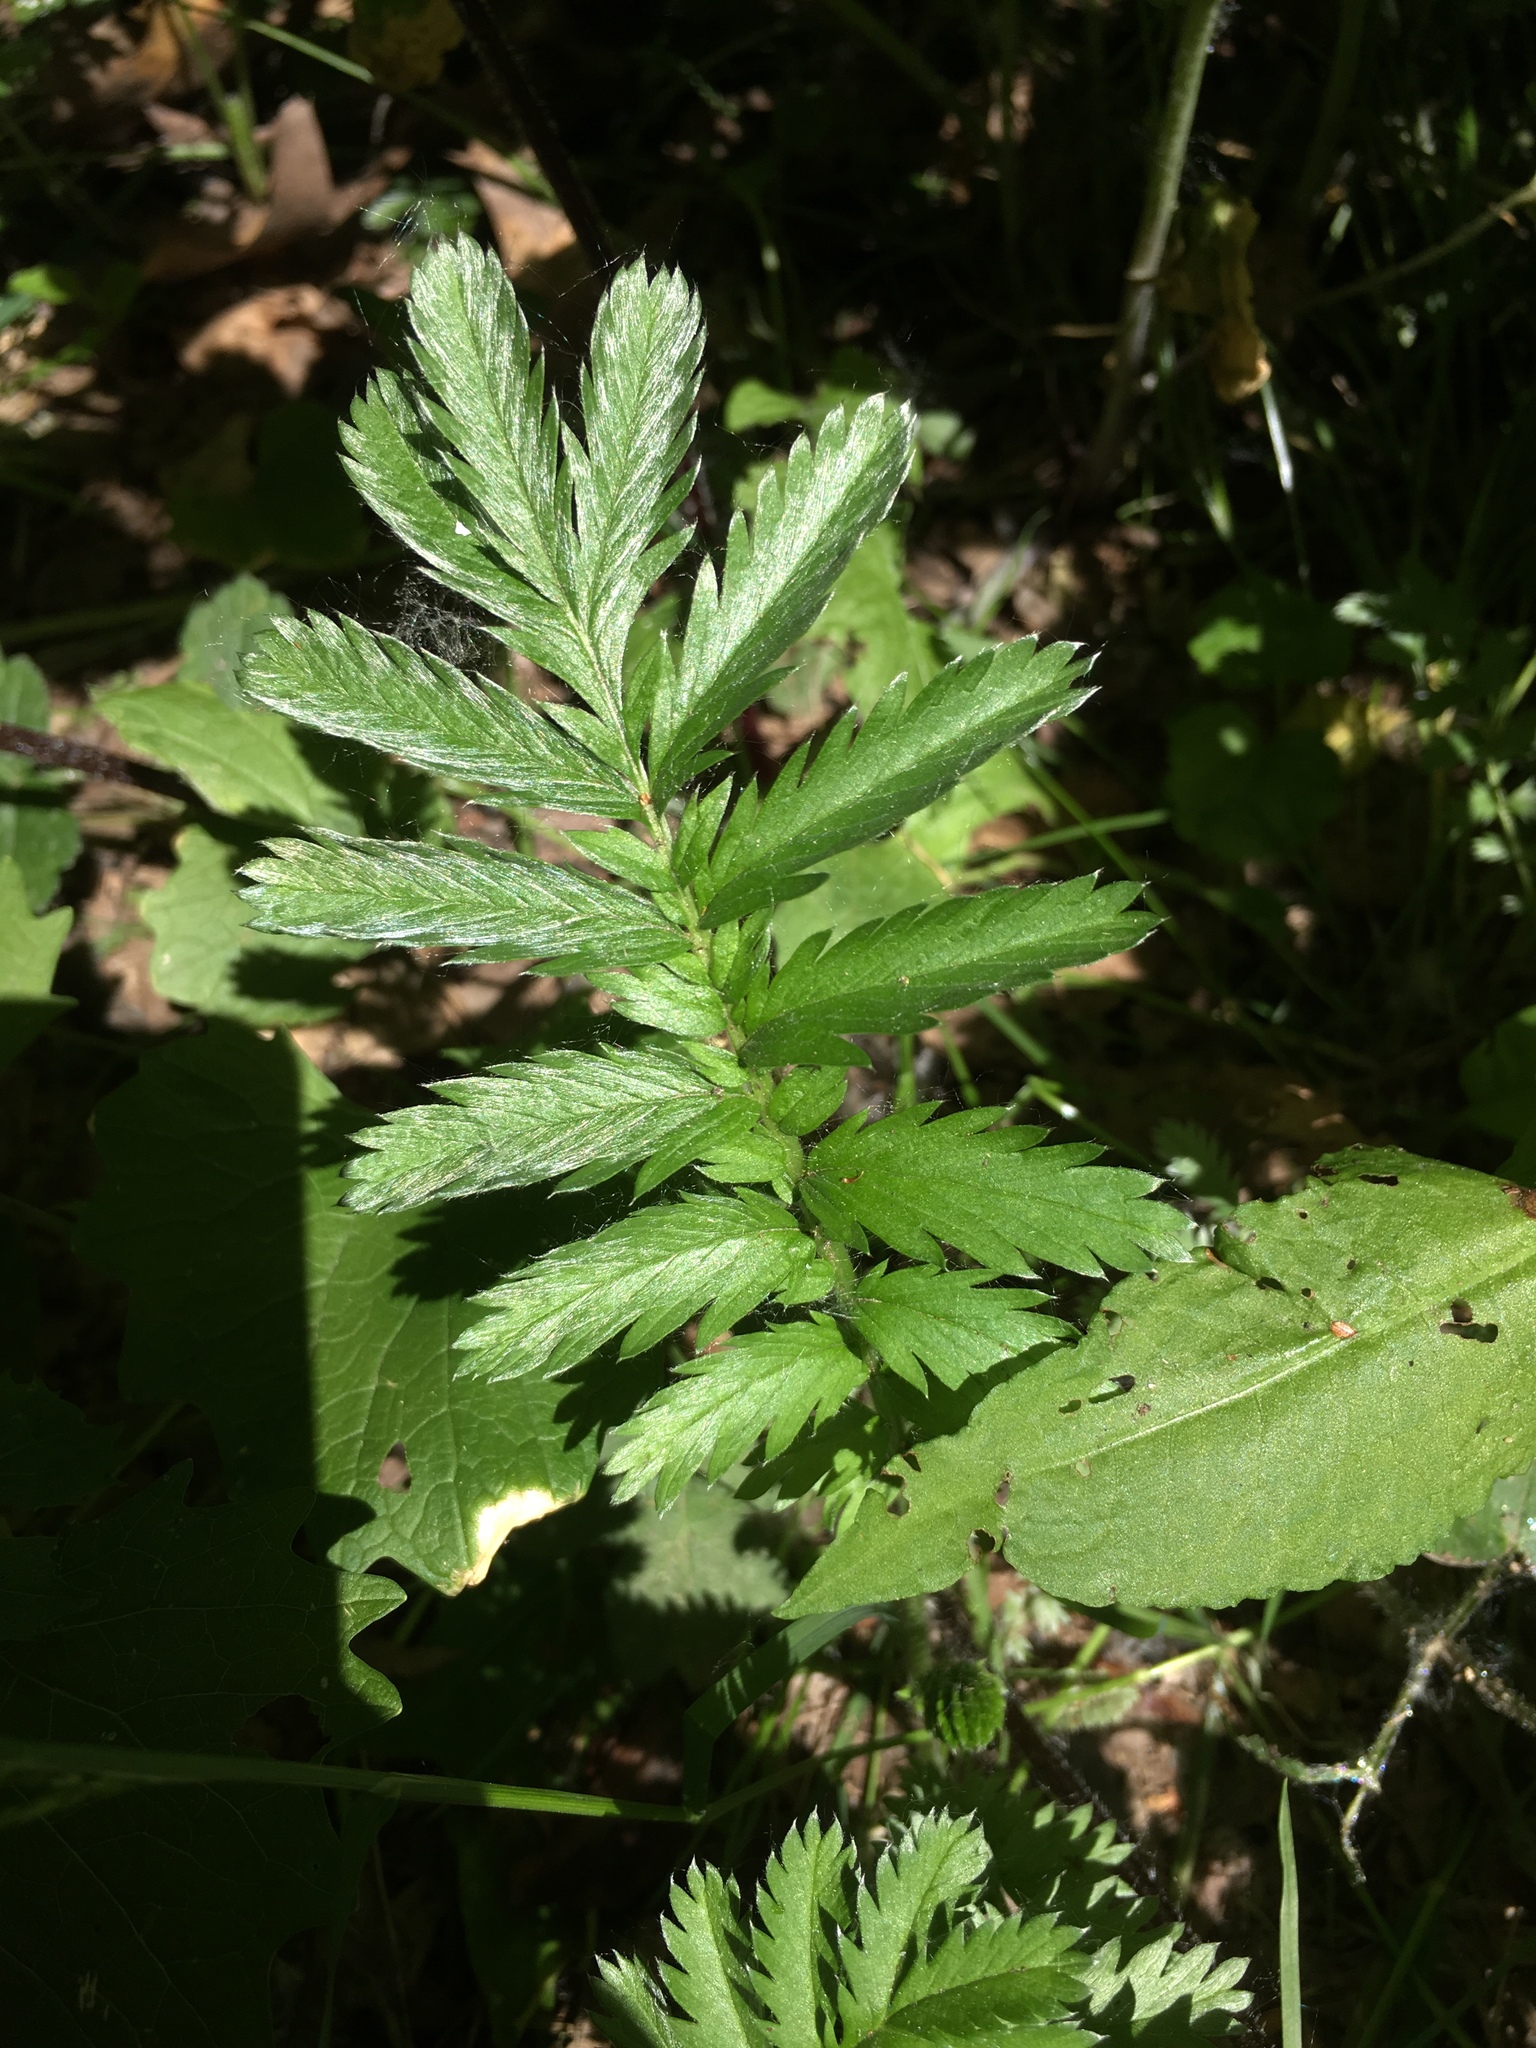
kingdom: Plantae
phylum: Tracheophyta
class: Magnoliopsida
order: Rosales
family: Rosaceae
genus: Argentina
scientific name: Argentina anserina
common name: Common silverweed
